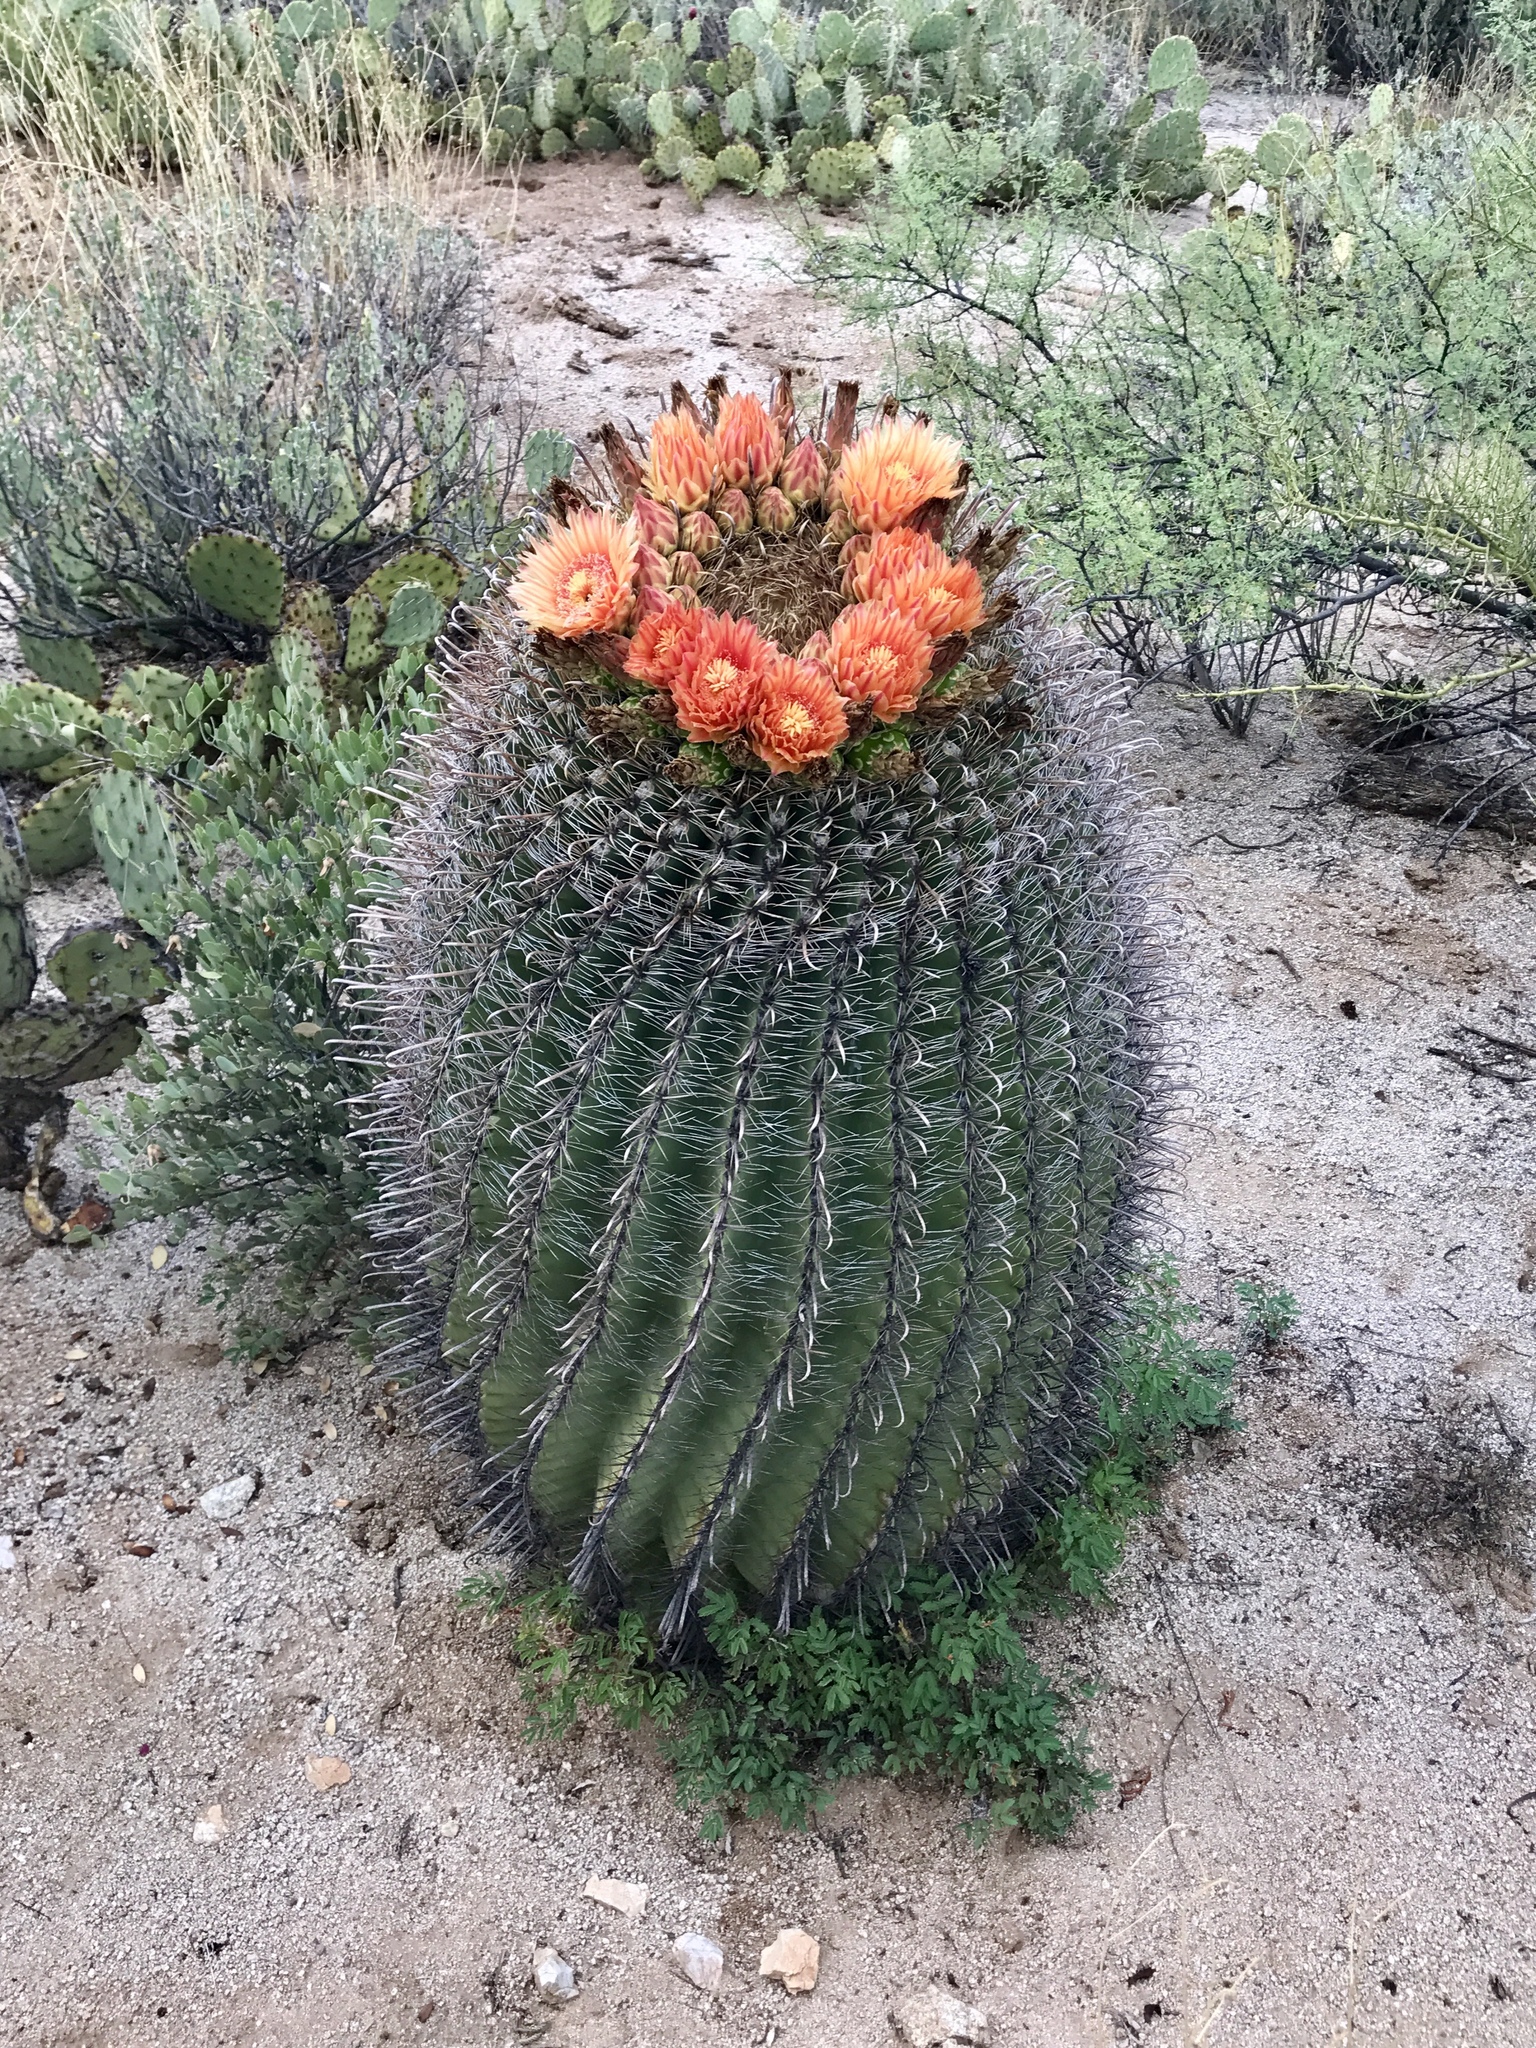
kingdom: Plantae
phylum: Tracheophyta
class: Magnoliopsida
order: Caryophyllales
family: Cactaceae
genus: Ferocactus
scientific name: Ferocactus wislizeni
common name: Candy barrel cactus
